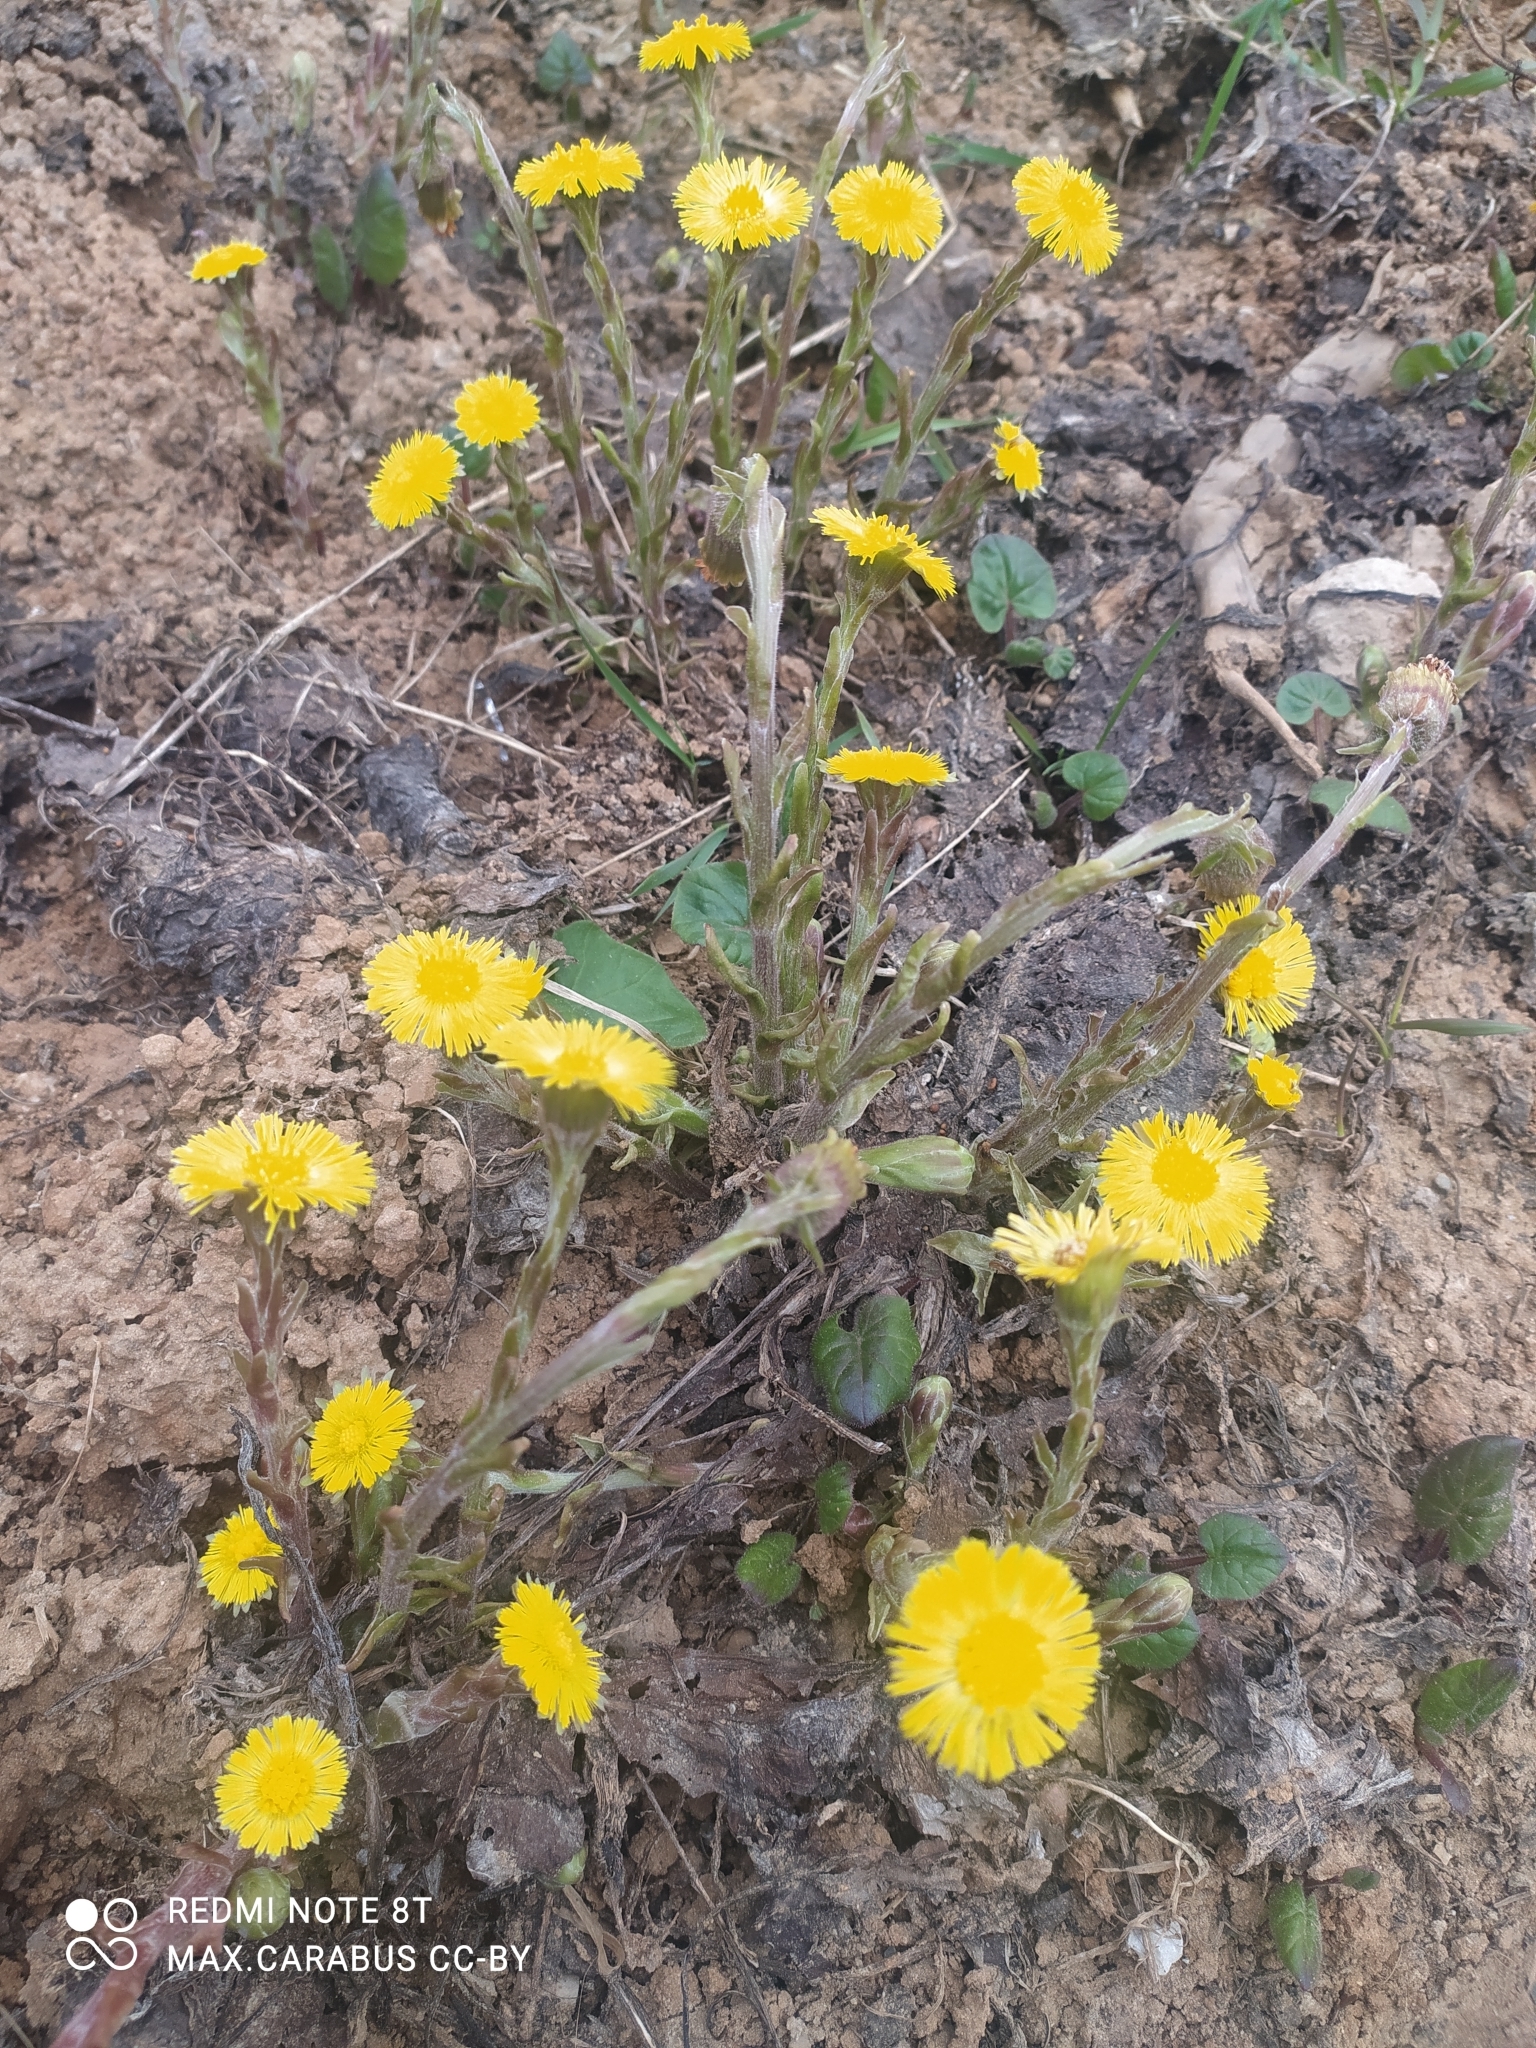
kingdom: Plantae
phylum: Tracheophyta
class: Magnoliopsida
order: Asterales
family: Asteraceae
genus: Tussilago
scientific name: Tussilago farfara
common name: Coltsfoot
